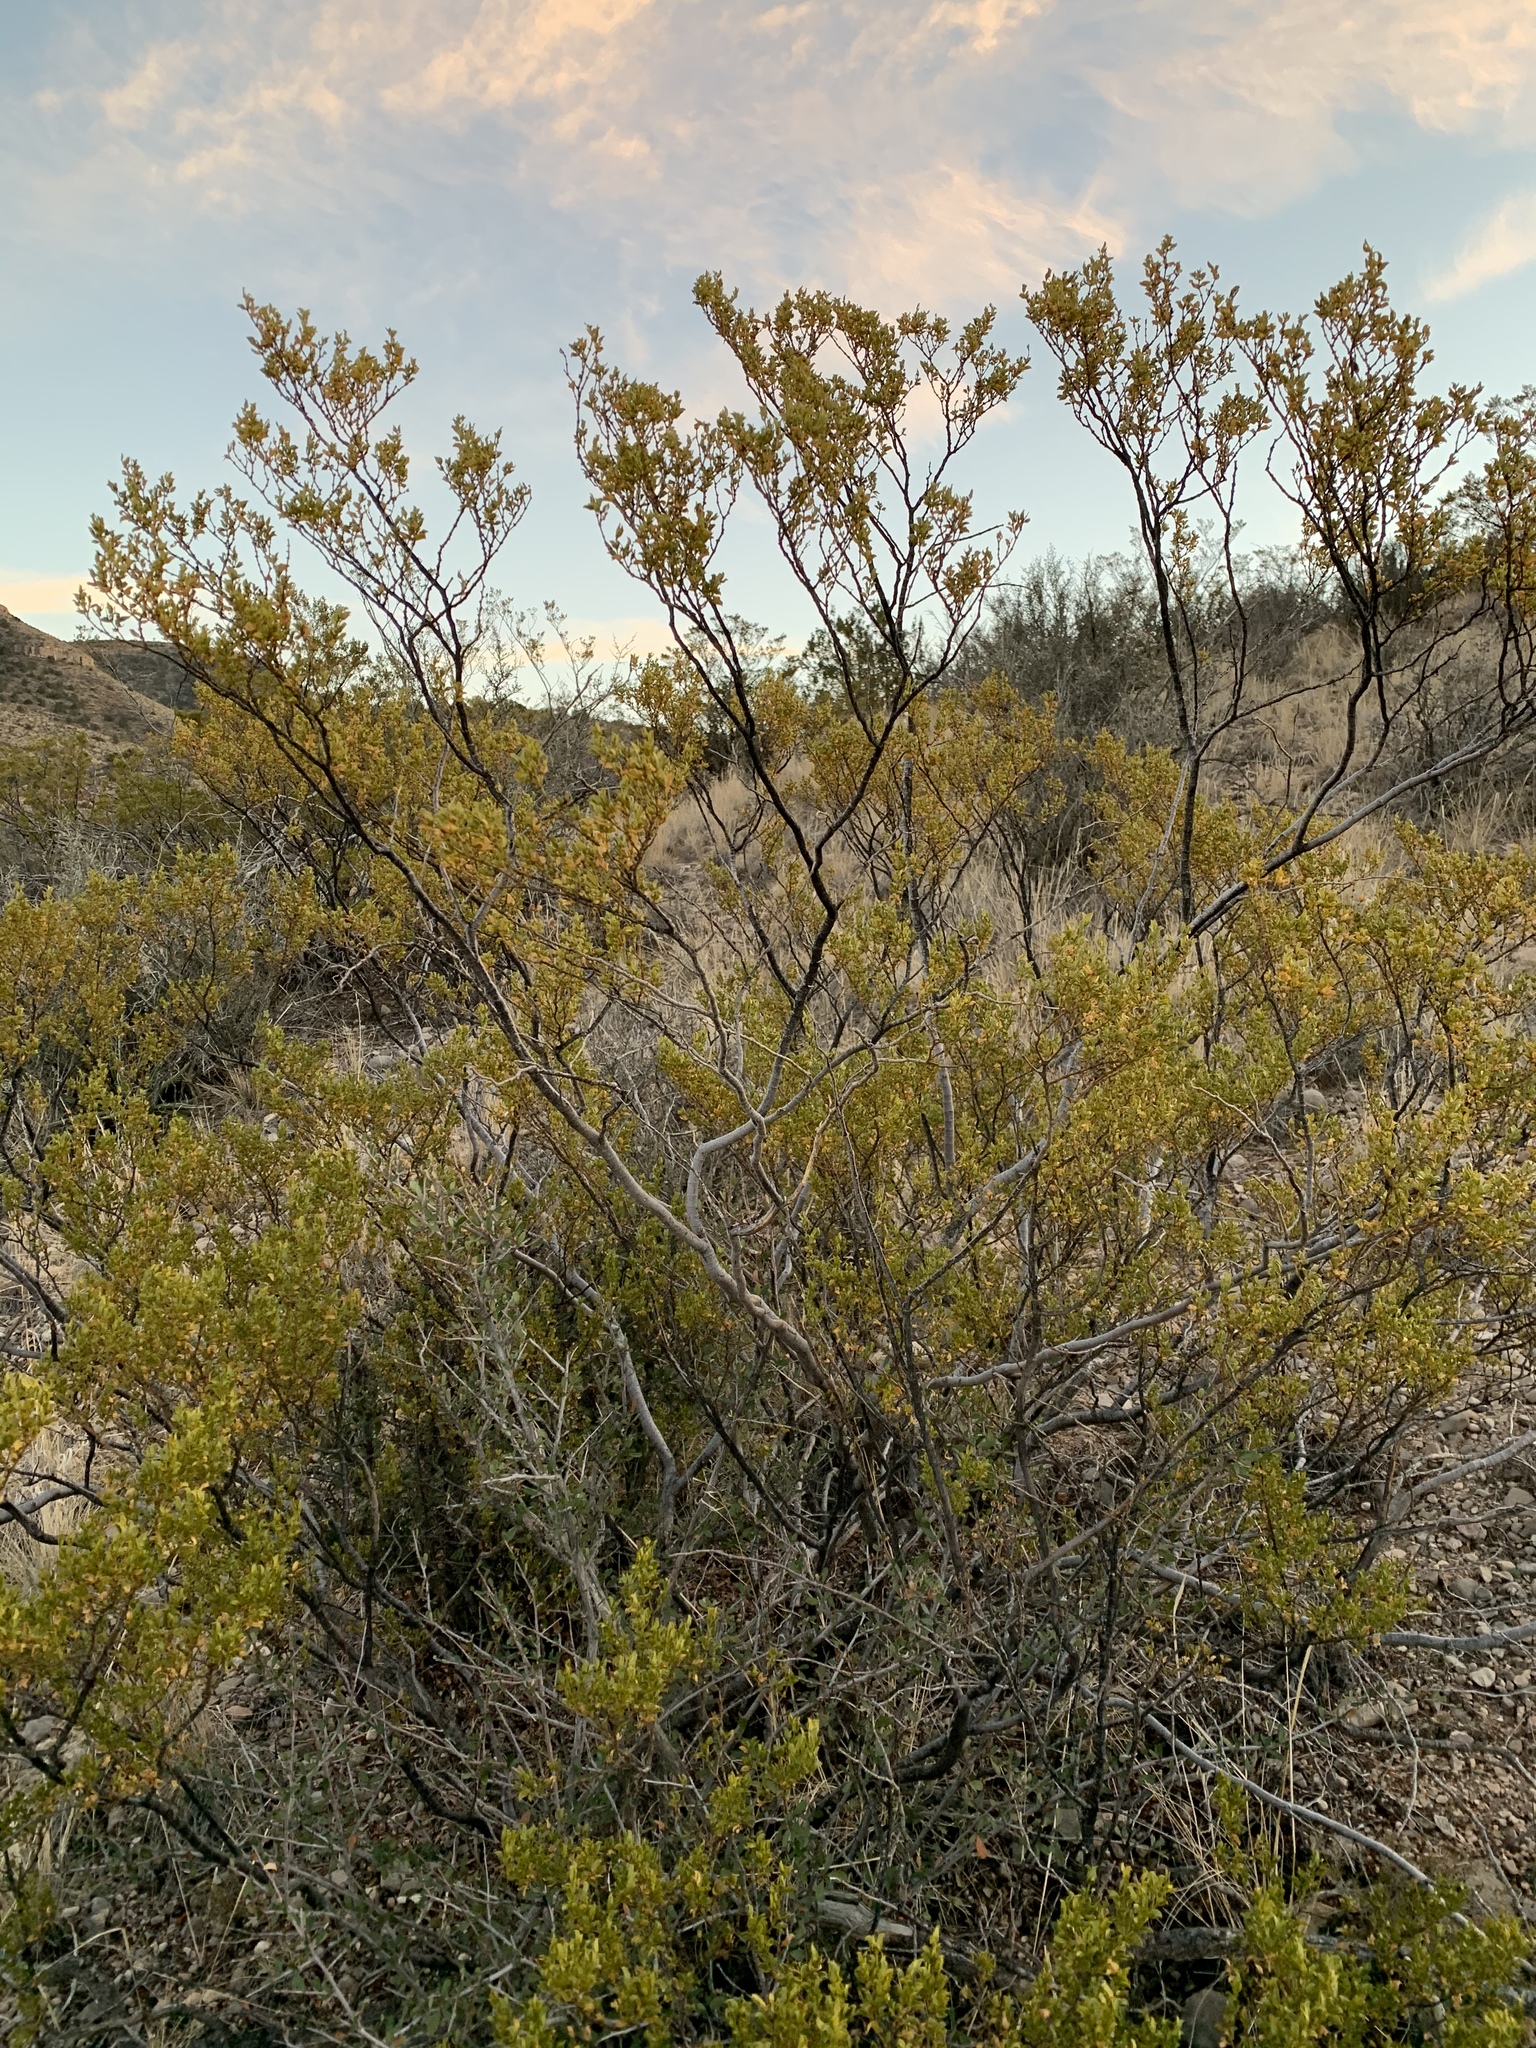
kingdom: Plantae
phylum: Tracheophyta
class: Magnoliopsida
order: Zygophyllales
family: Zygophyllaceae
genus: Larrea
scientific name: Larrea tridentata
